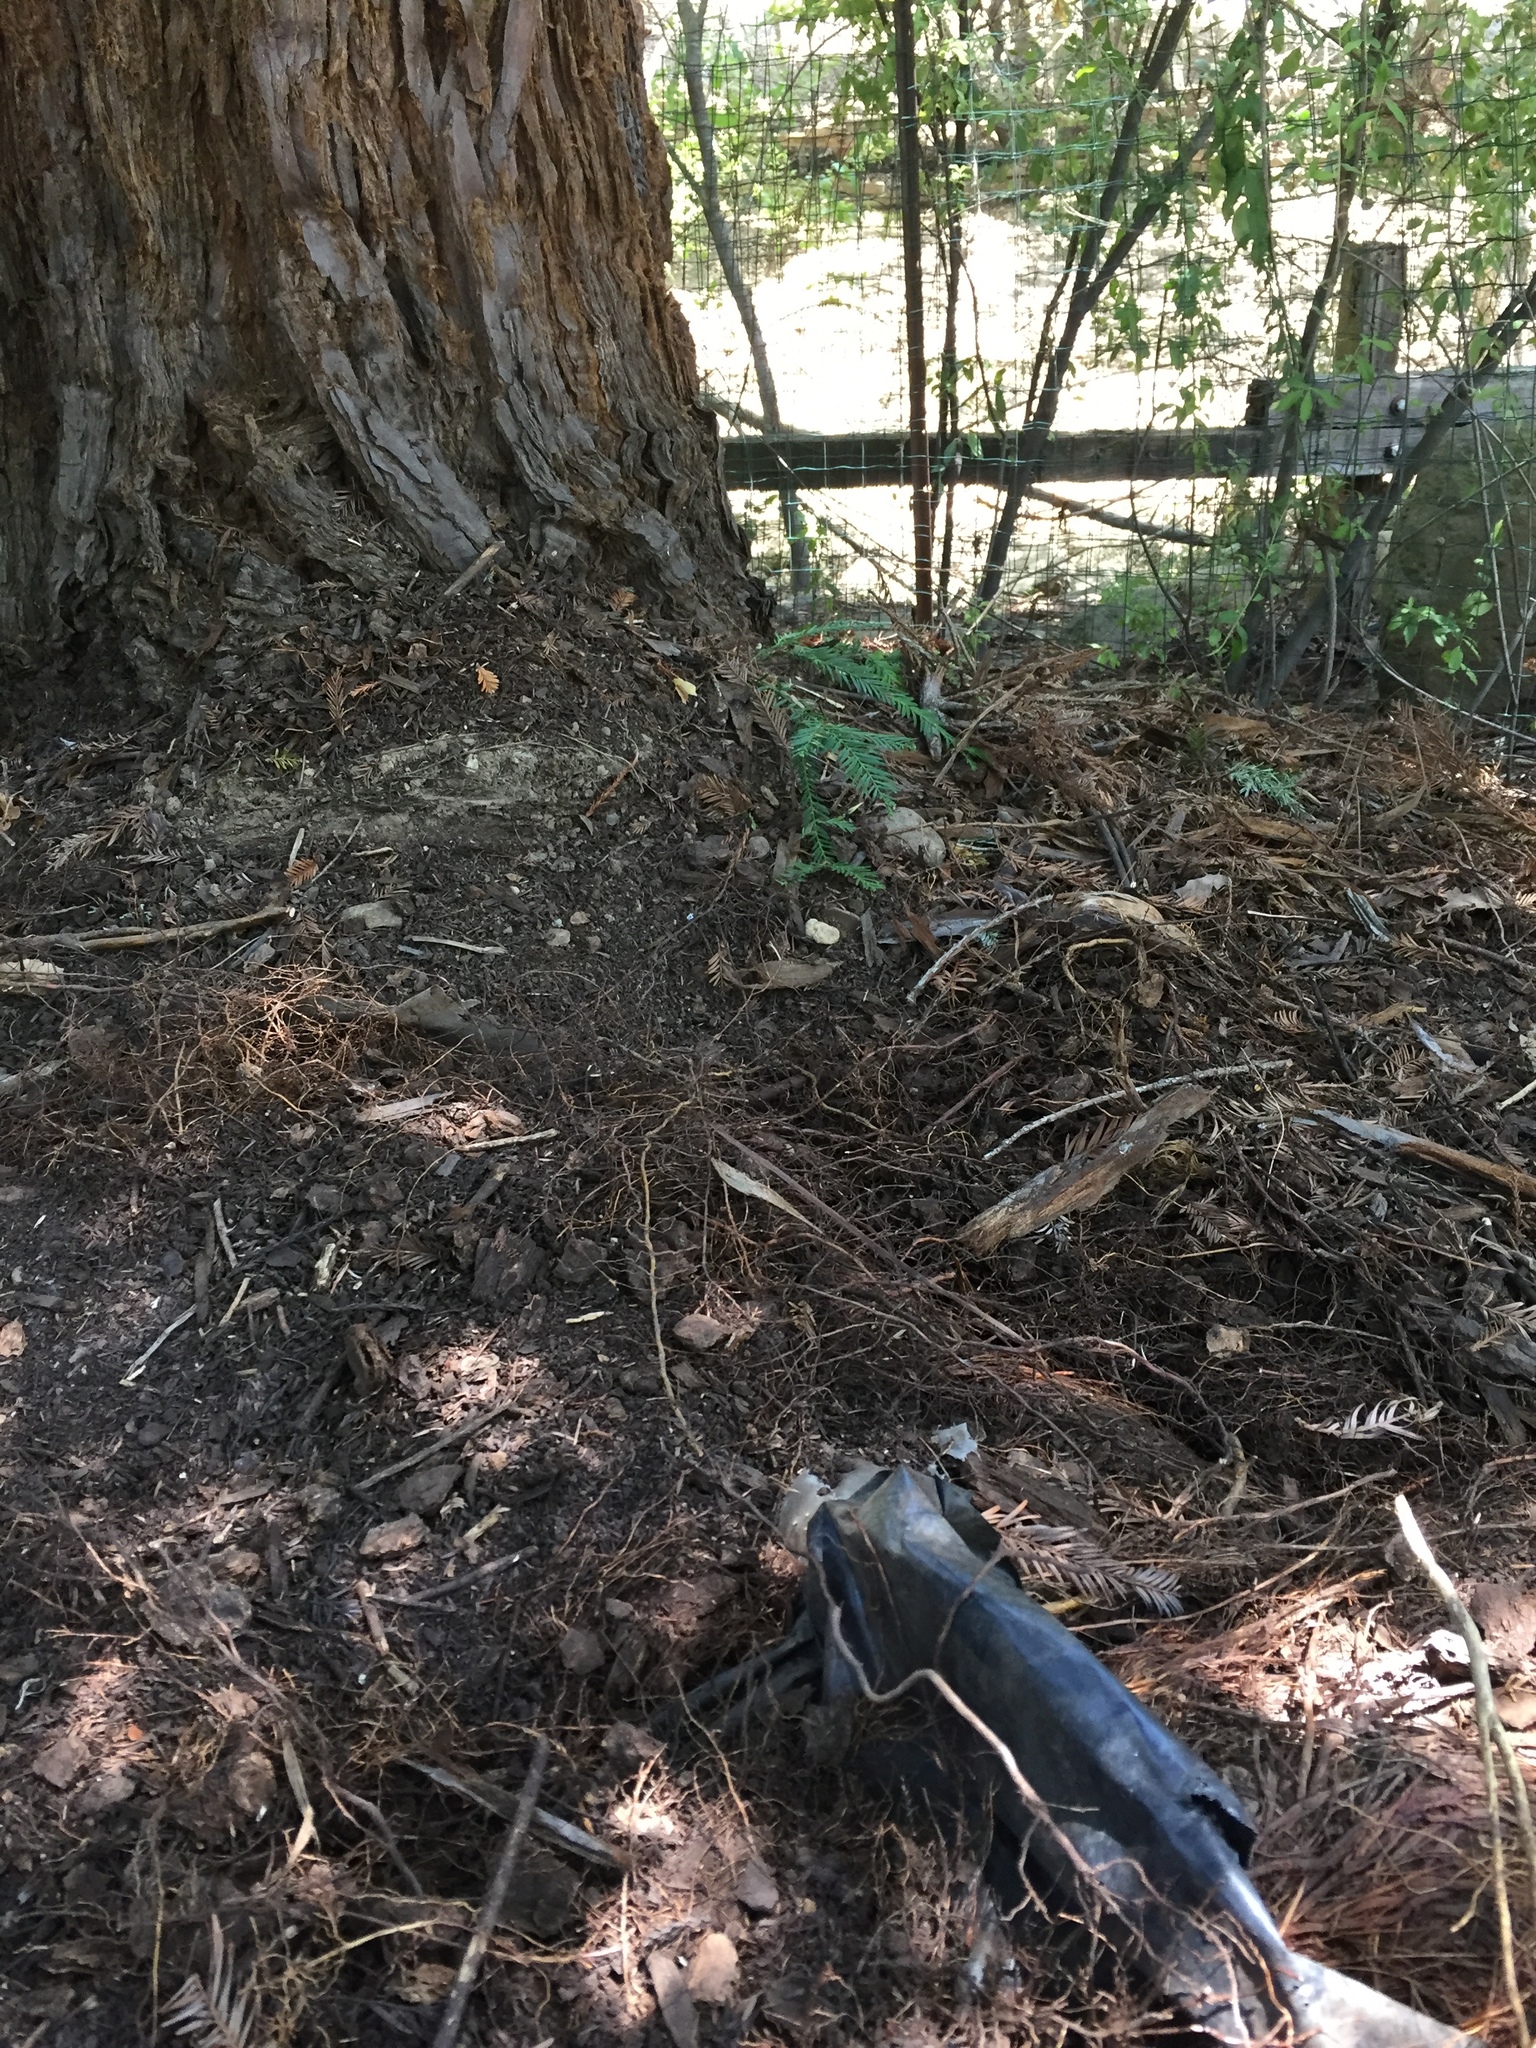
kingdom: Animalia
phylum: Chordata
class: Amphibia
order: Caudata
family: Plethodontidae
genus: Aneides
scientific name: Aneides lugubris
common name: Arboreal salamander
